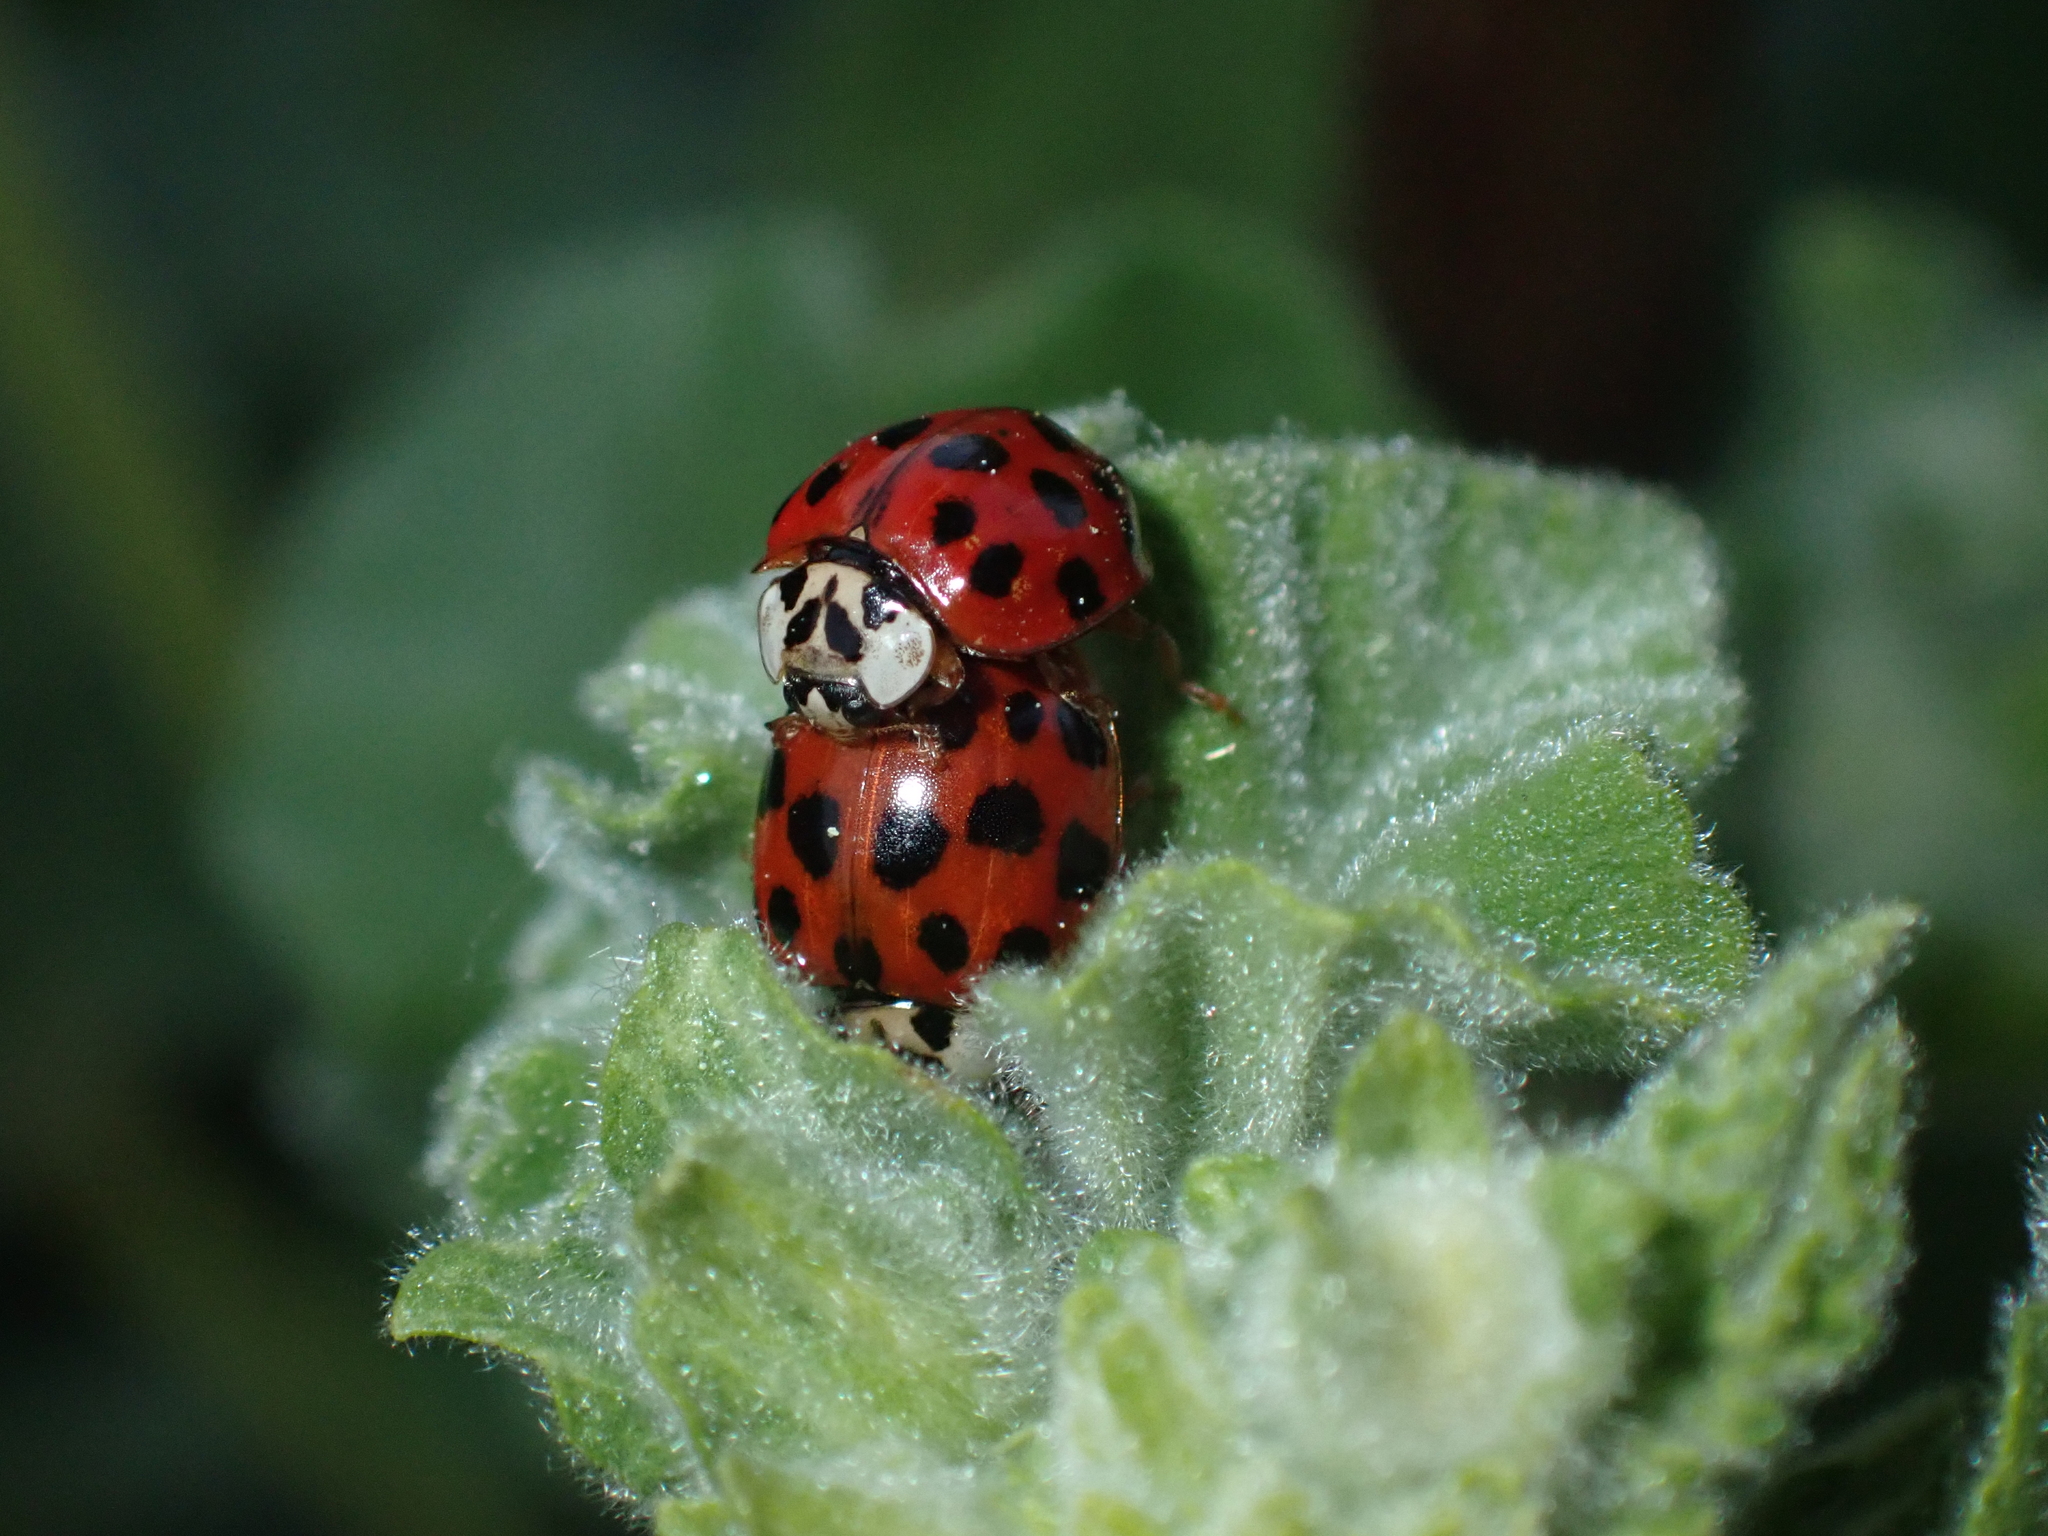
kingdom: Animalia
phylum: Arthropoda
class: Insecta
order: Coleoptera
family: Coccinellidae
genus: Harmonia
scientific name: Harmonia axyridis
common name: Harlequin ladybird
